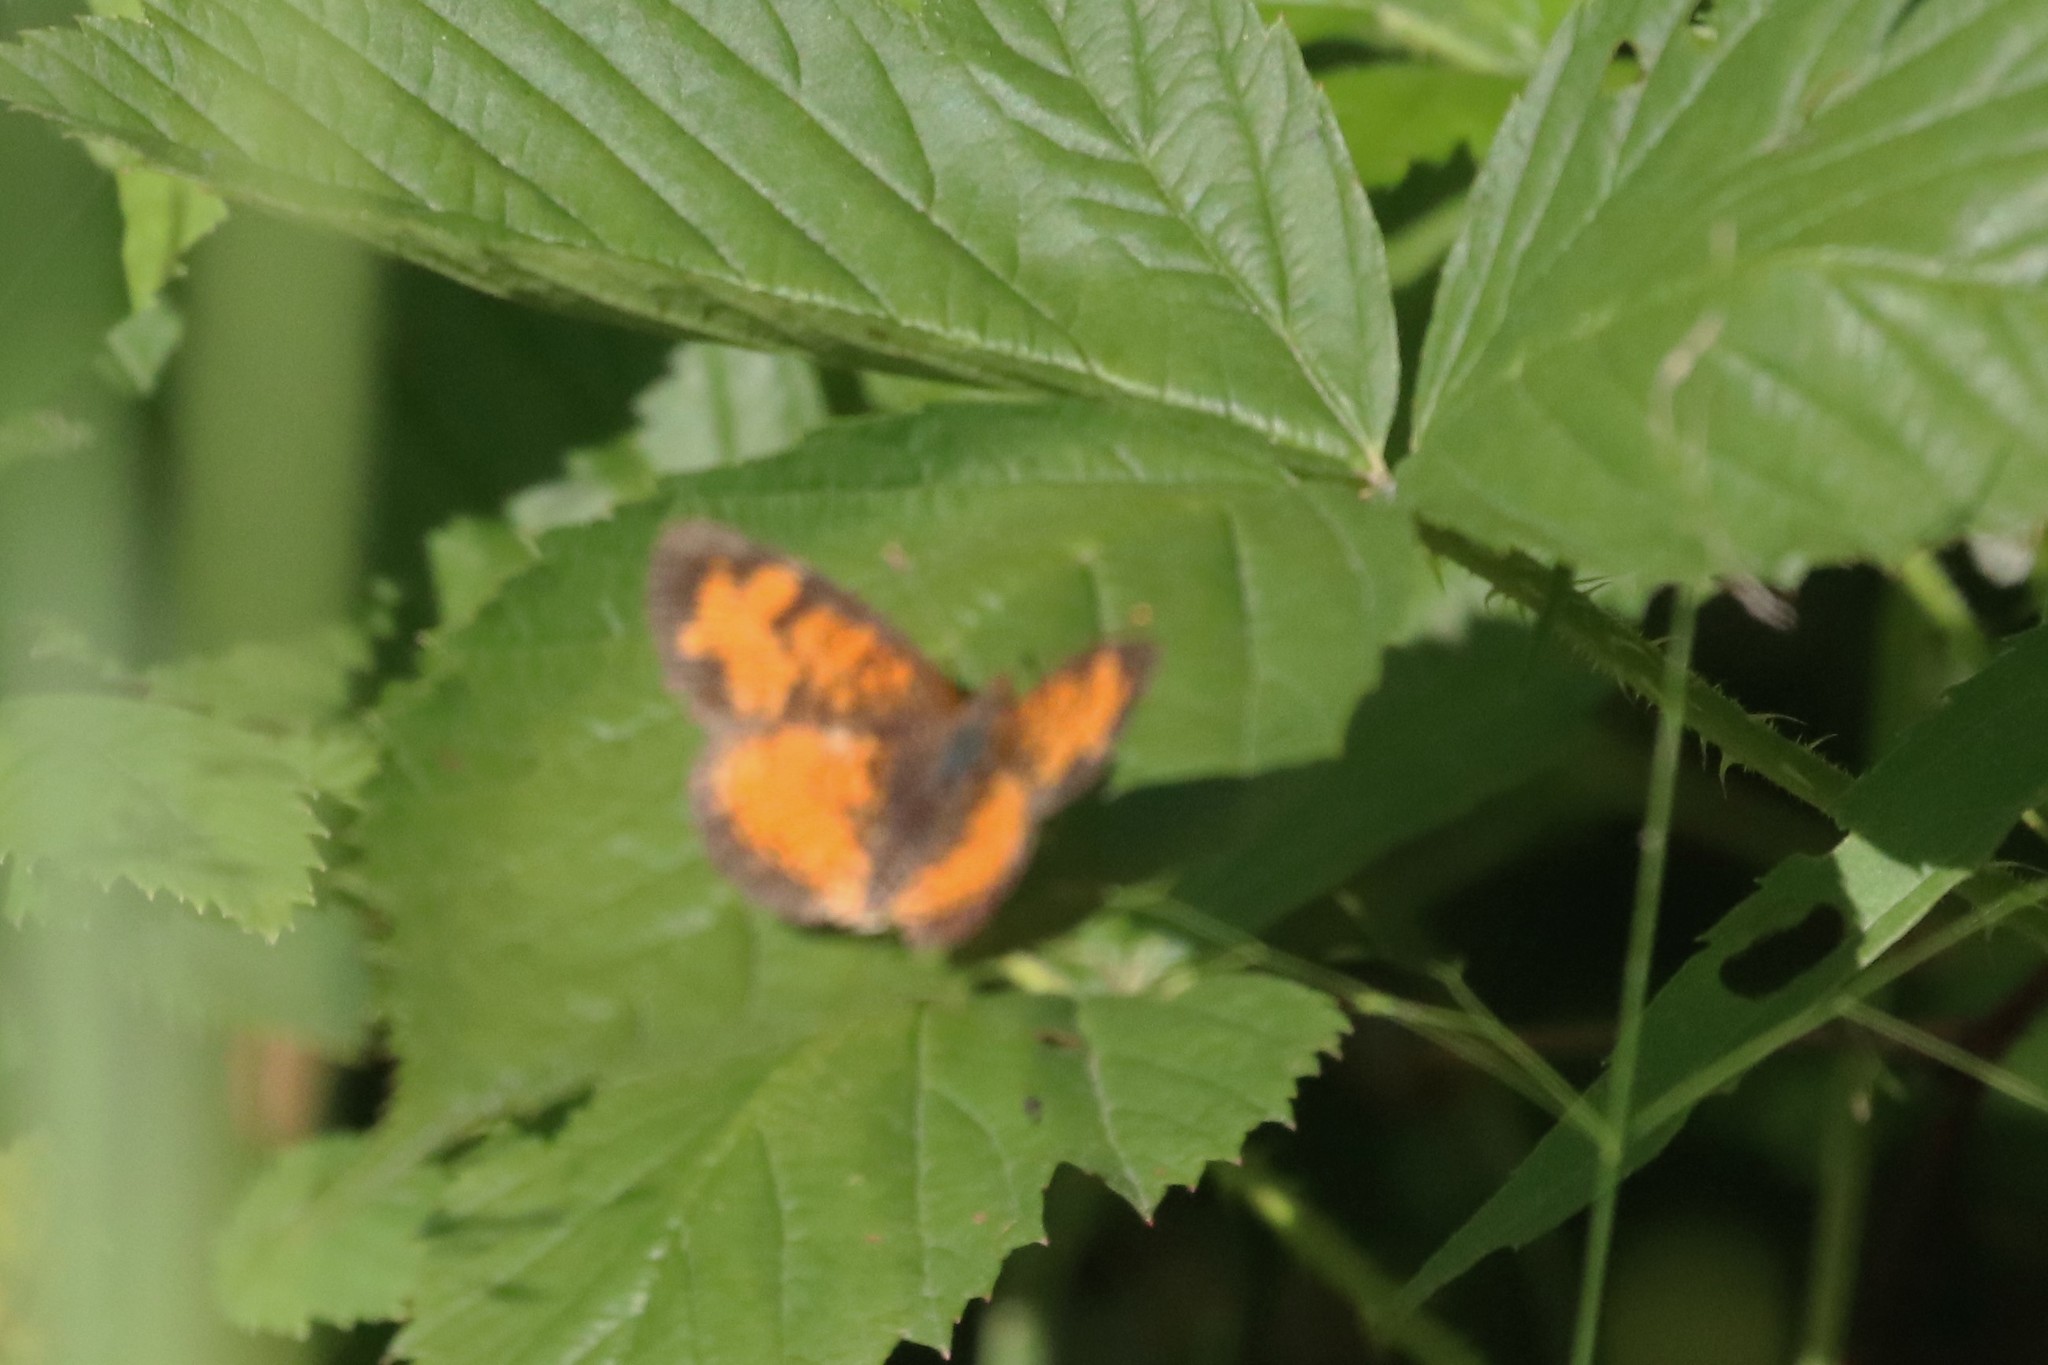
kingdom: Animalia
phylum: Arthropoda
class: Insecta
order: Lepidoptera
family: Nymphalidae
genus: Phyciodes
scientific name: Phyciodes tharos
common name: Pearl crescent
